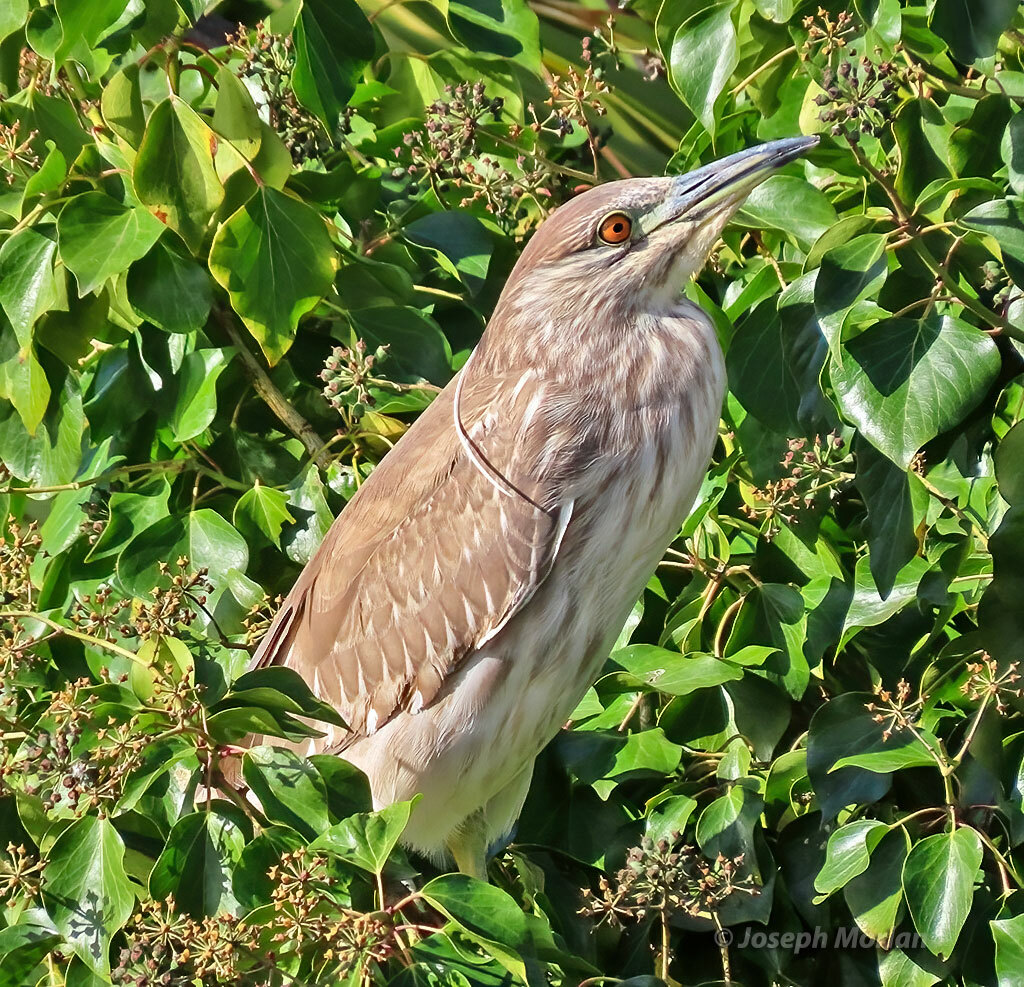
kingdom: Animalia
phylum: Chordata
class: Aves
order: Pelecaniformes
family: Ardeidae
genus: Nycticorax
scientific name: Nycticorax nycticorax
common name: Black-crowned night heron
